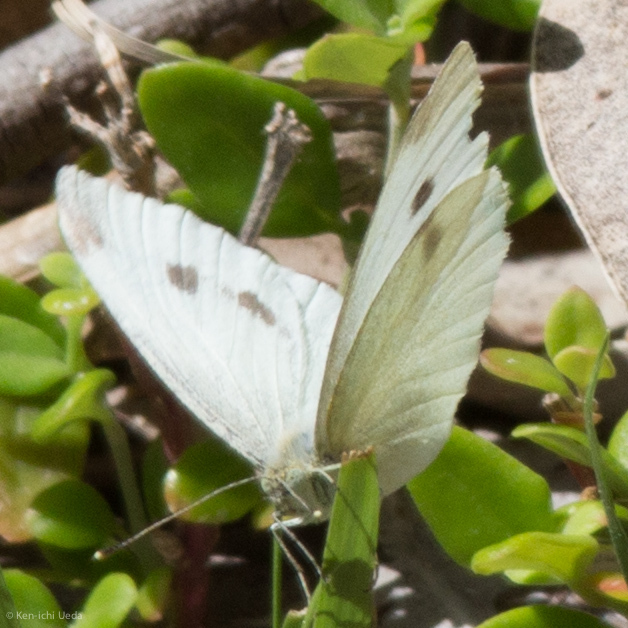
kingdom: Animalia
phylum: Arthropoda
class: Insecta
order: Lepidoptera
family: Pieridae
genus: Pieris
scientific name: Pieris rapae
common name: Small white
